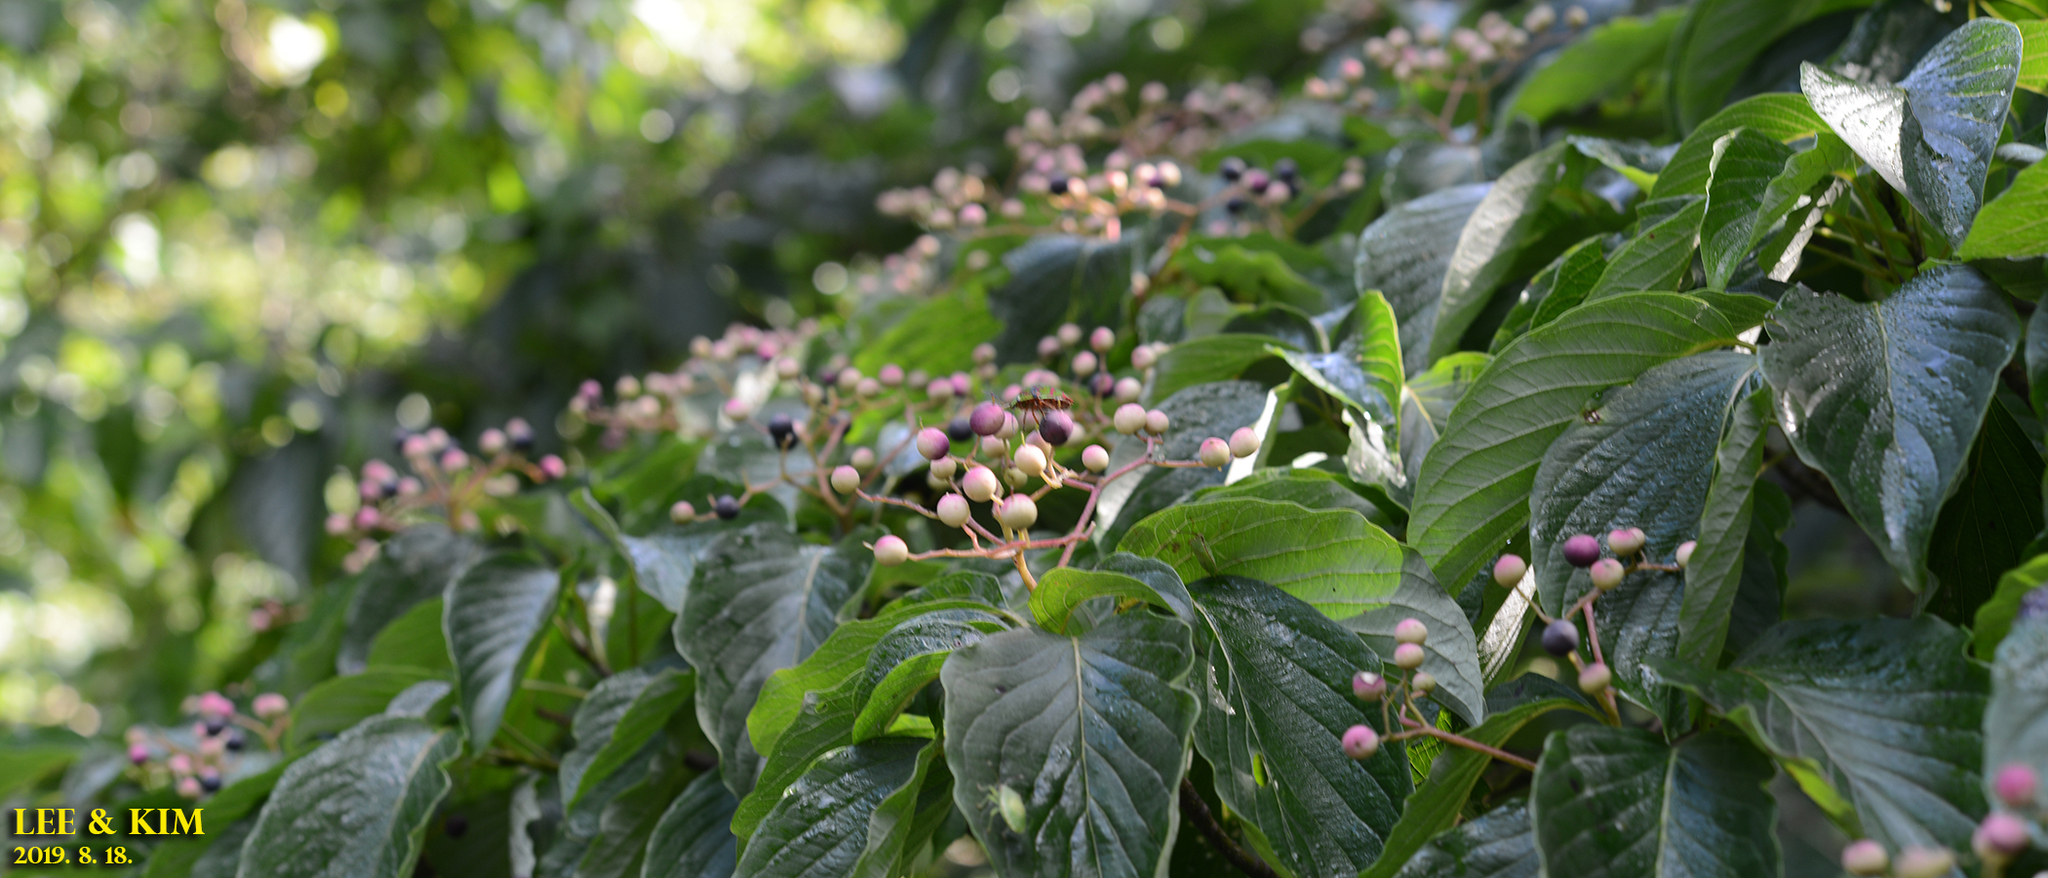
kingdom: Plantae
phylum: Tracheophyta
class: Magnoliopsida
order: Lamiales
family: Lamiaceae
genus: Clerodendrum
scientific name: Clerodendrum trichotomum
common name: Harlequin glorybower
